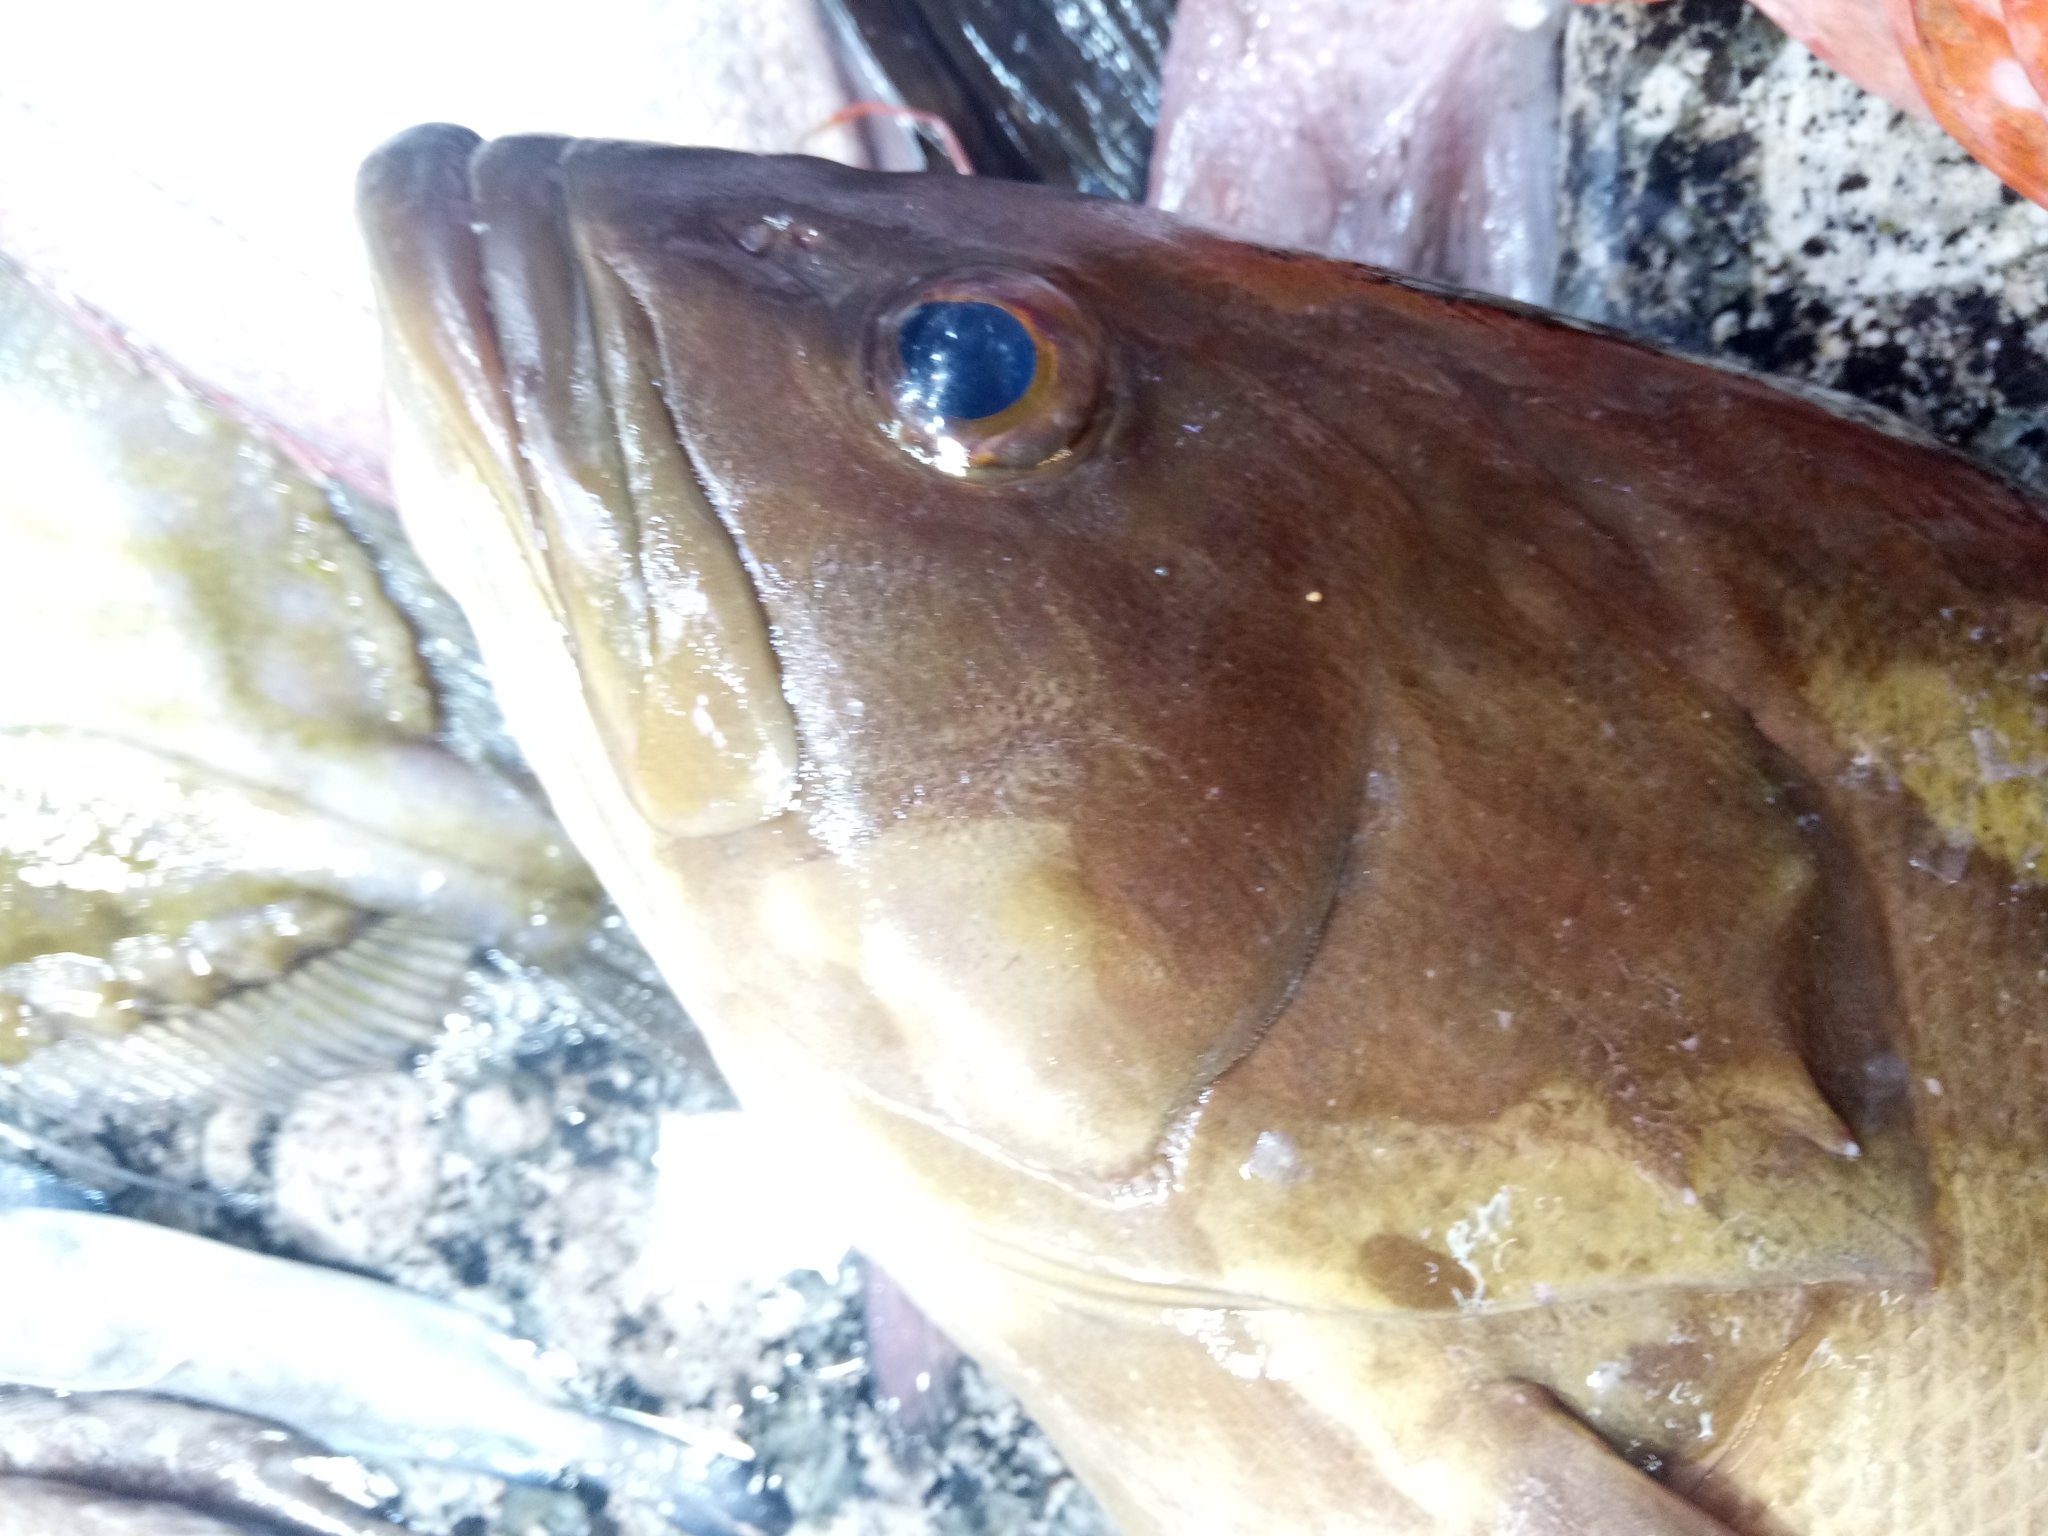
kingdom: Animalia
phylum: Chordata
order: Perciformes
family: Serranidae
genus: Epinephelus
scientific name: Epinephelus costae
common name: Goldblotch grouper
